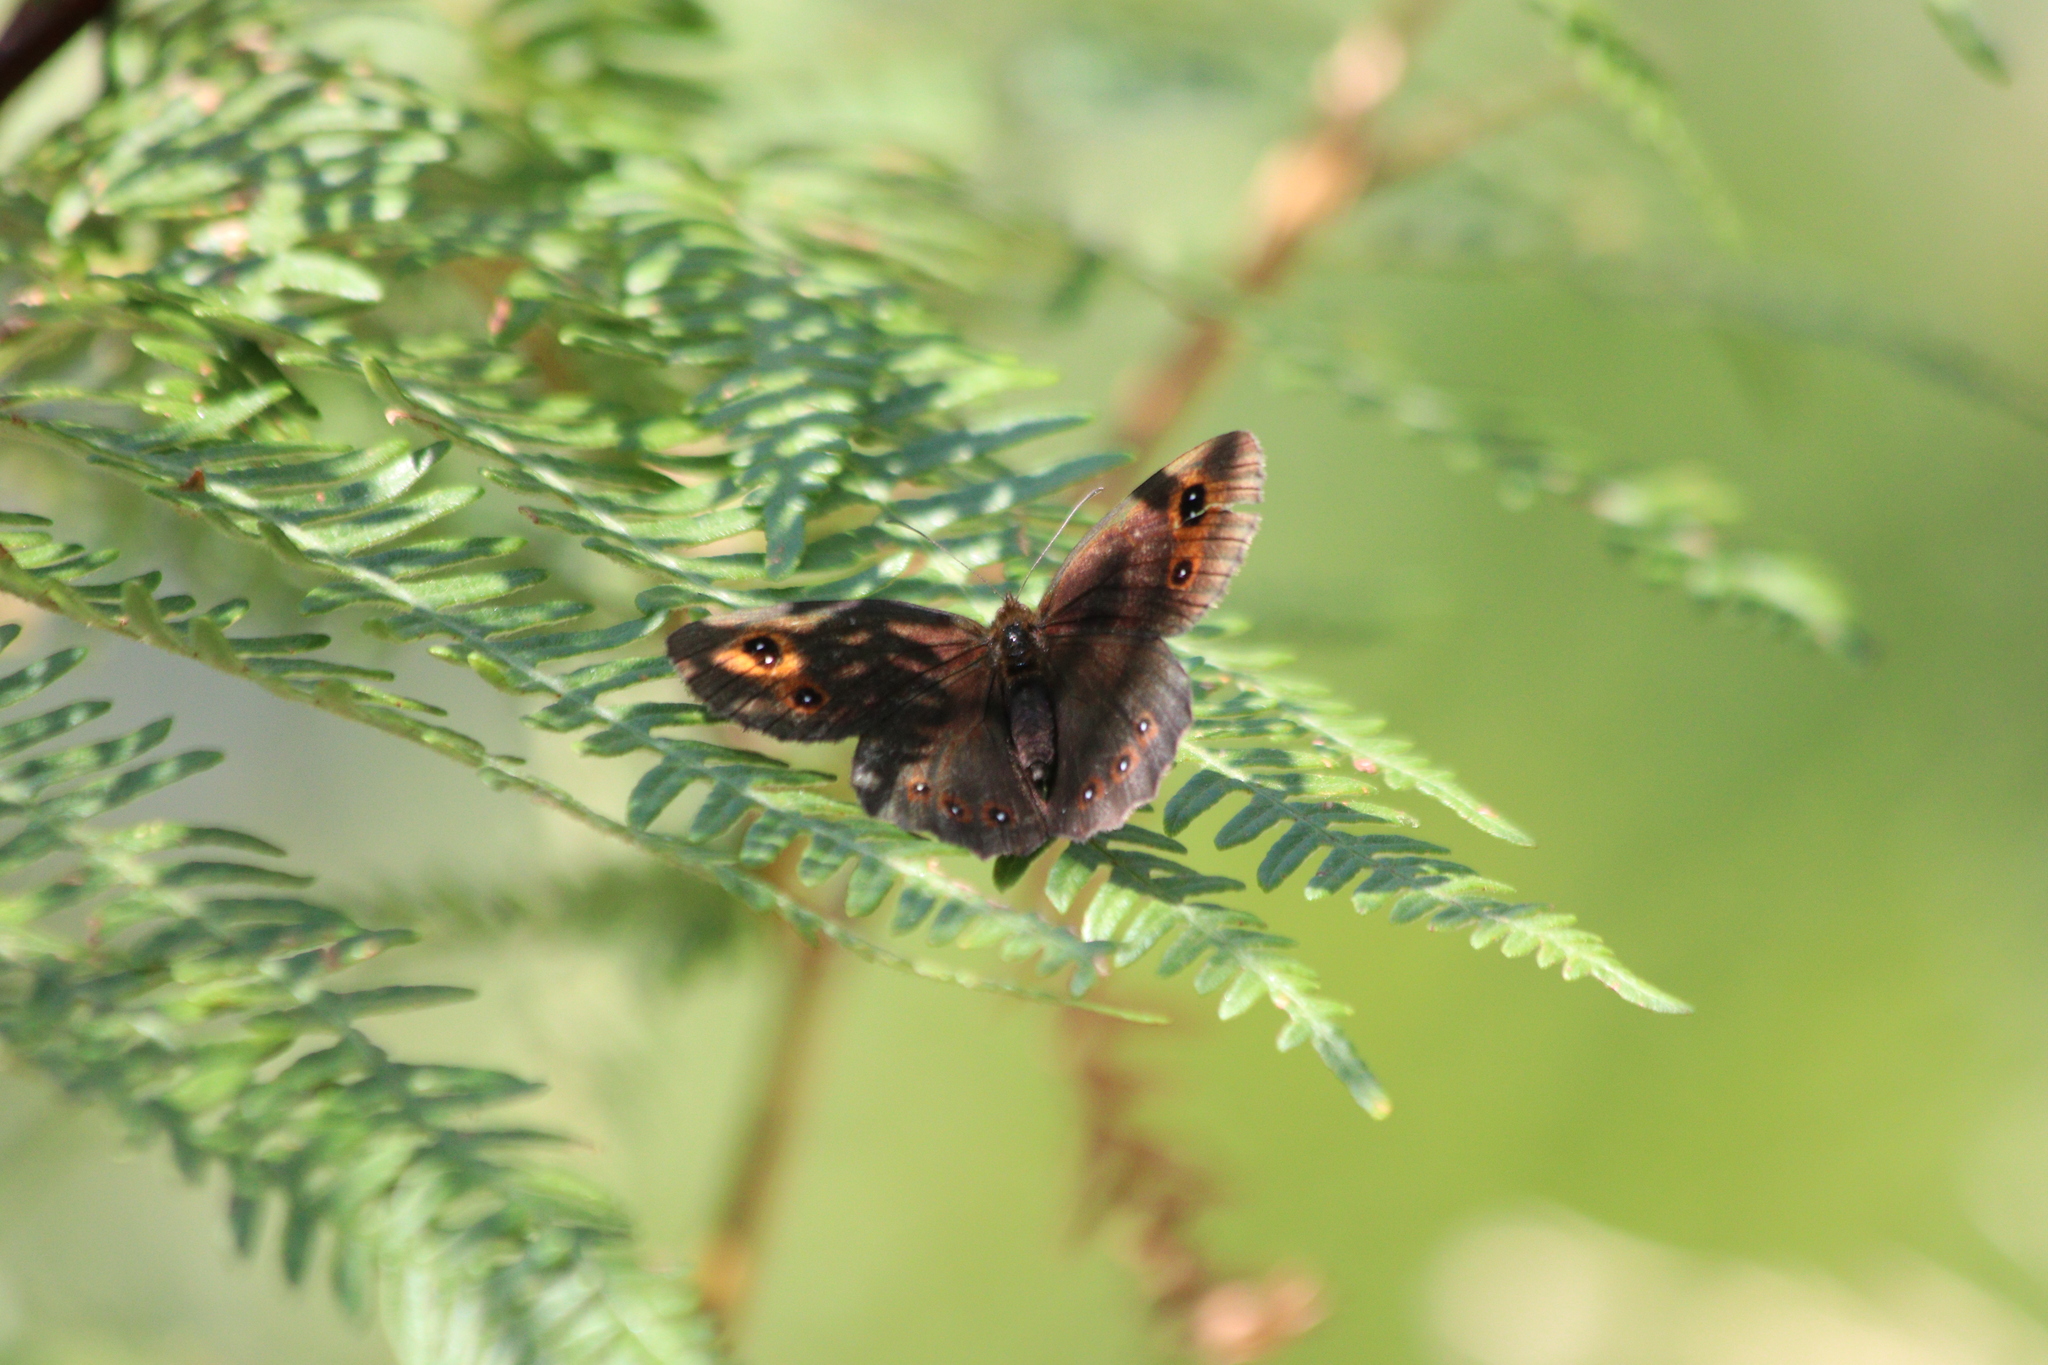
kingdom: Animalia
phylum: Arthropoda
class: Insecta
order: Lepidoptera
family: Nymphalidae
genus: Erebia
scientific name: Erebia aethiops
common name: Scotch argus
